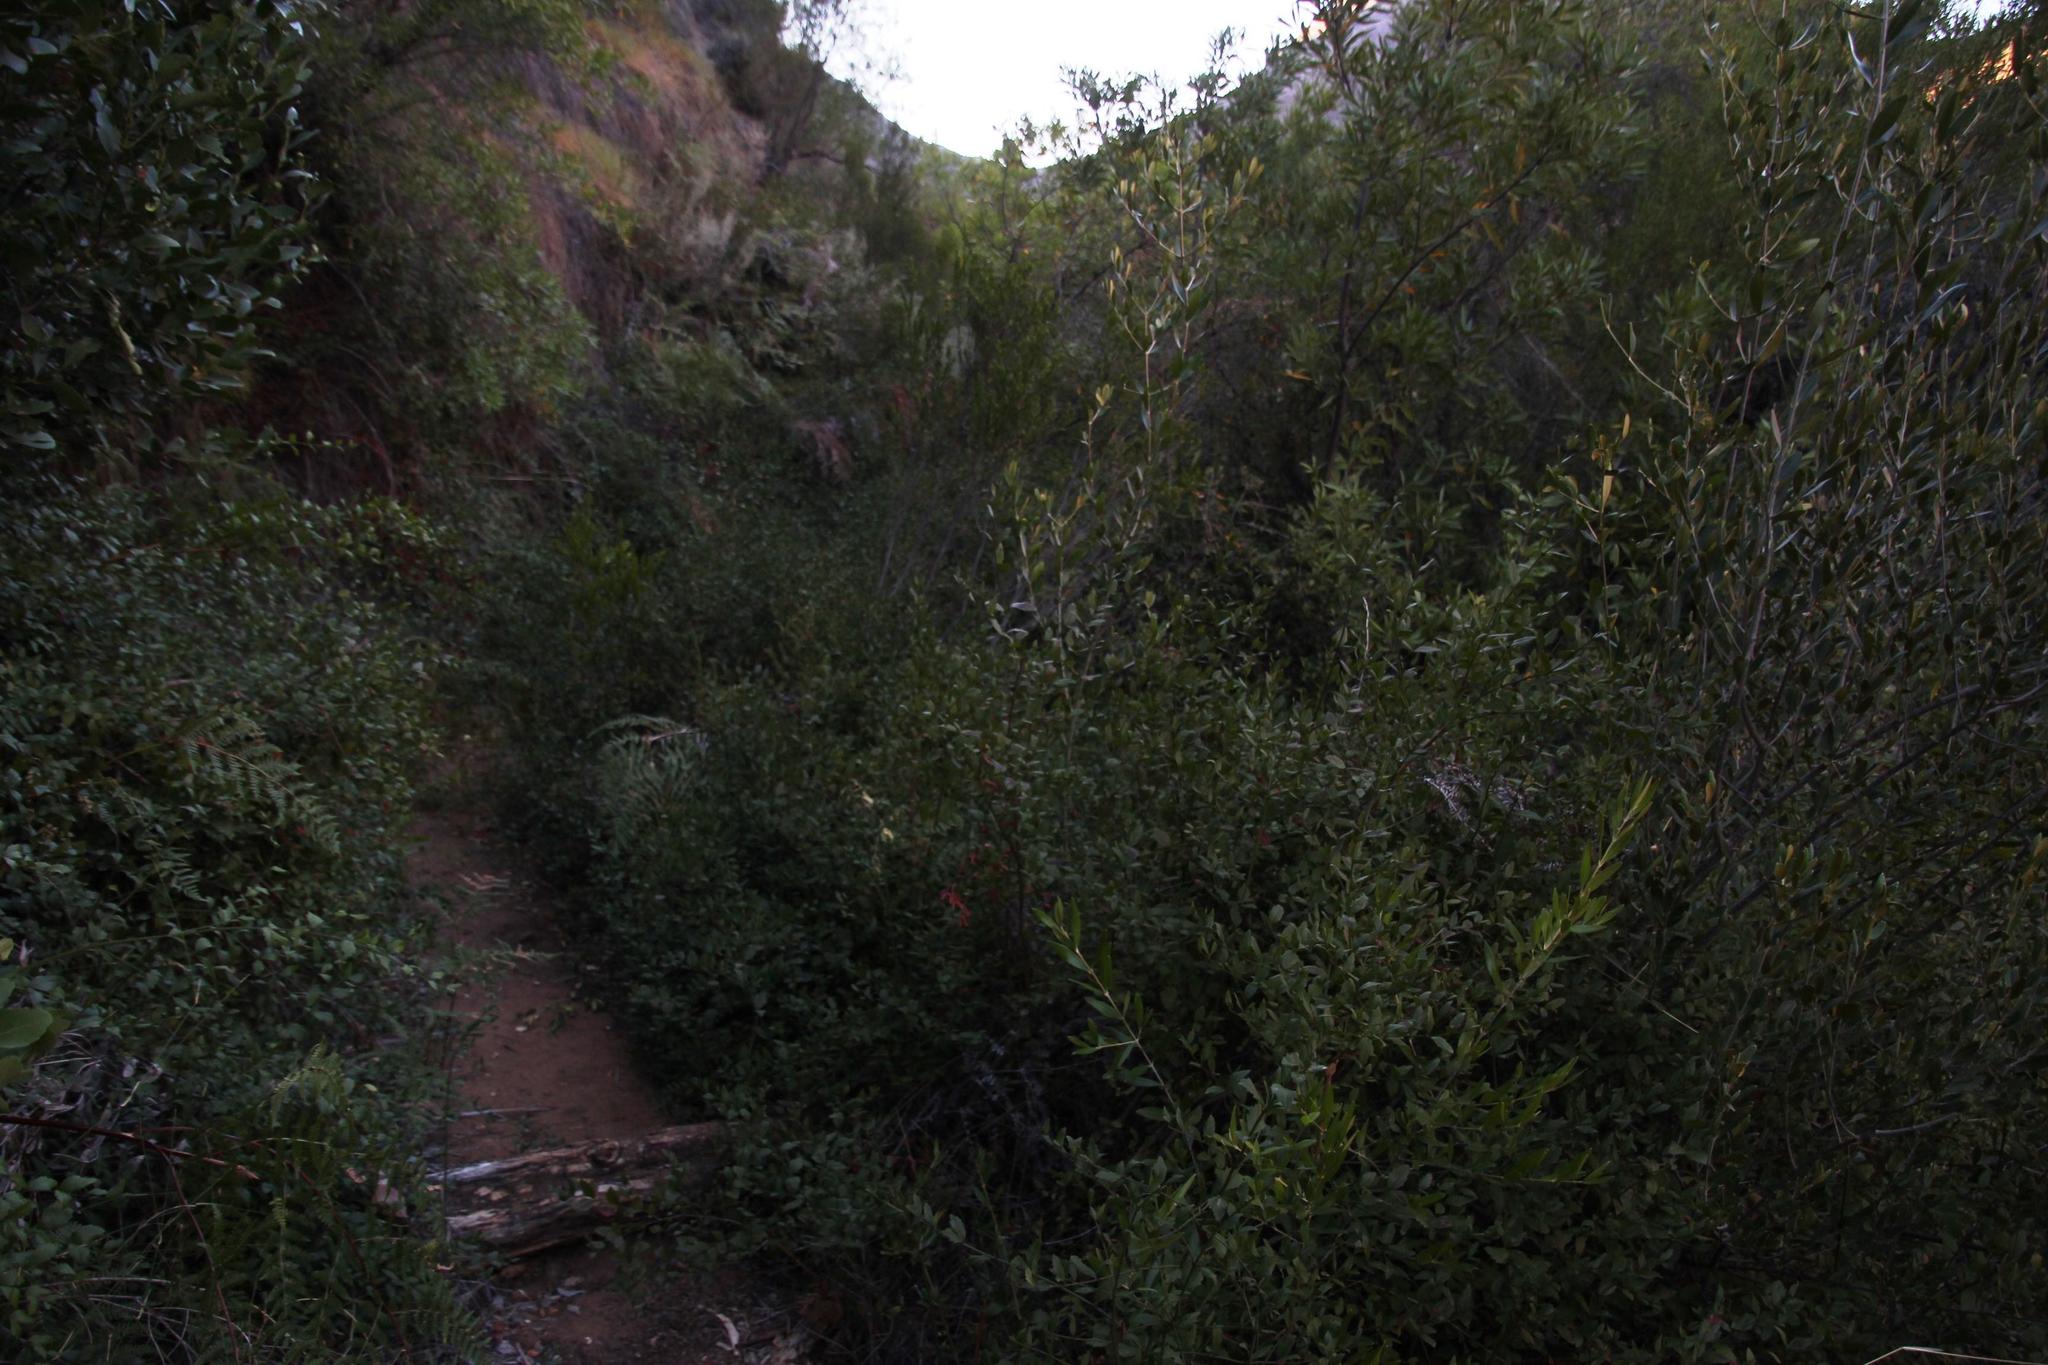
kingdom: Plantae
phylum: Tracheophyta
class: Magnoliopsida
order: Lamiales
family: Stilbaceae
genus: Halleria
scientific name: Halleria elliptica
